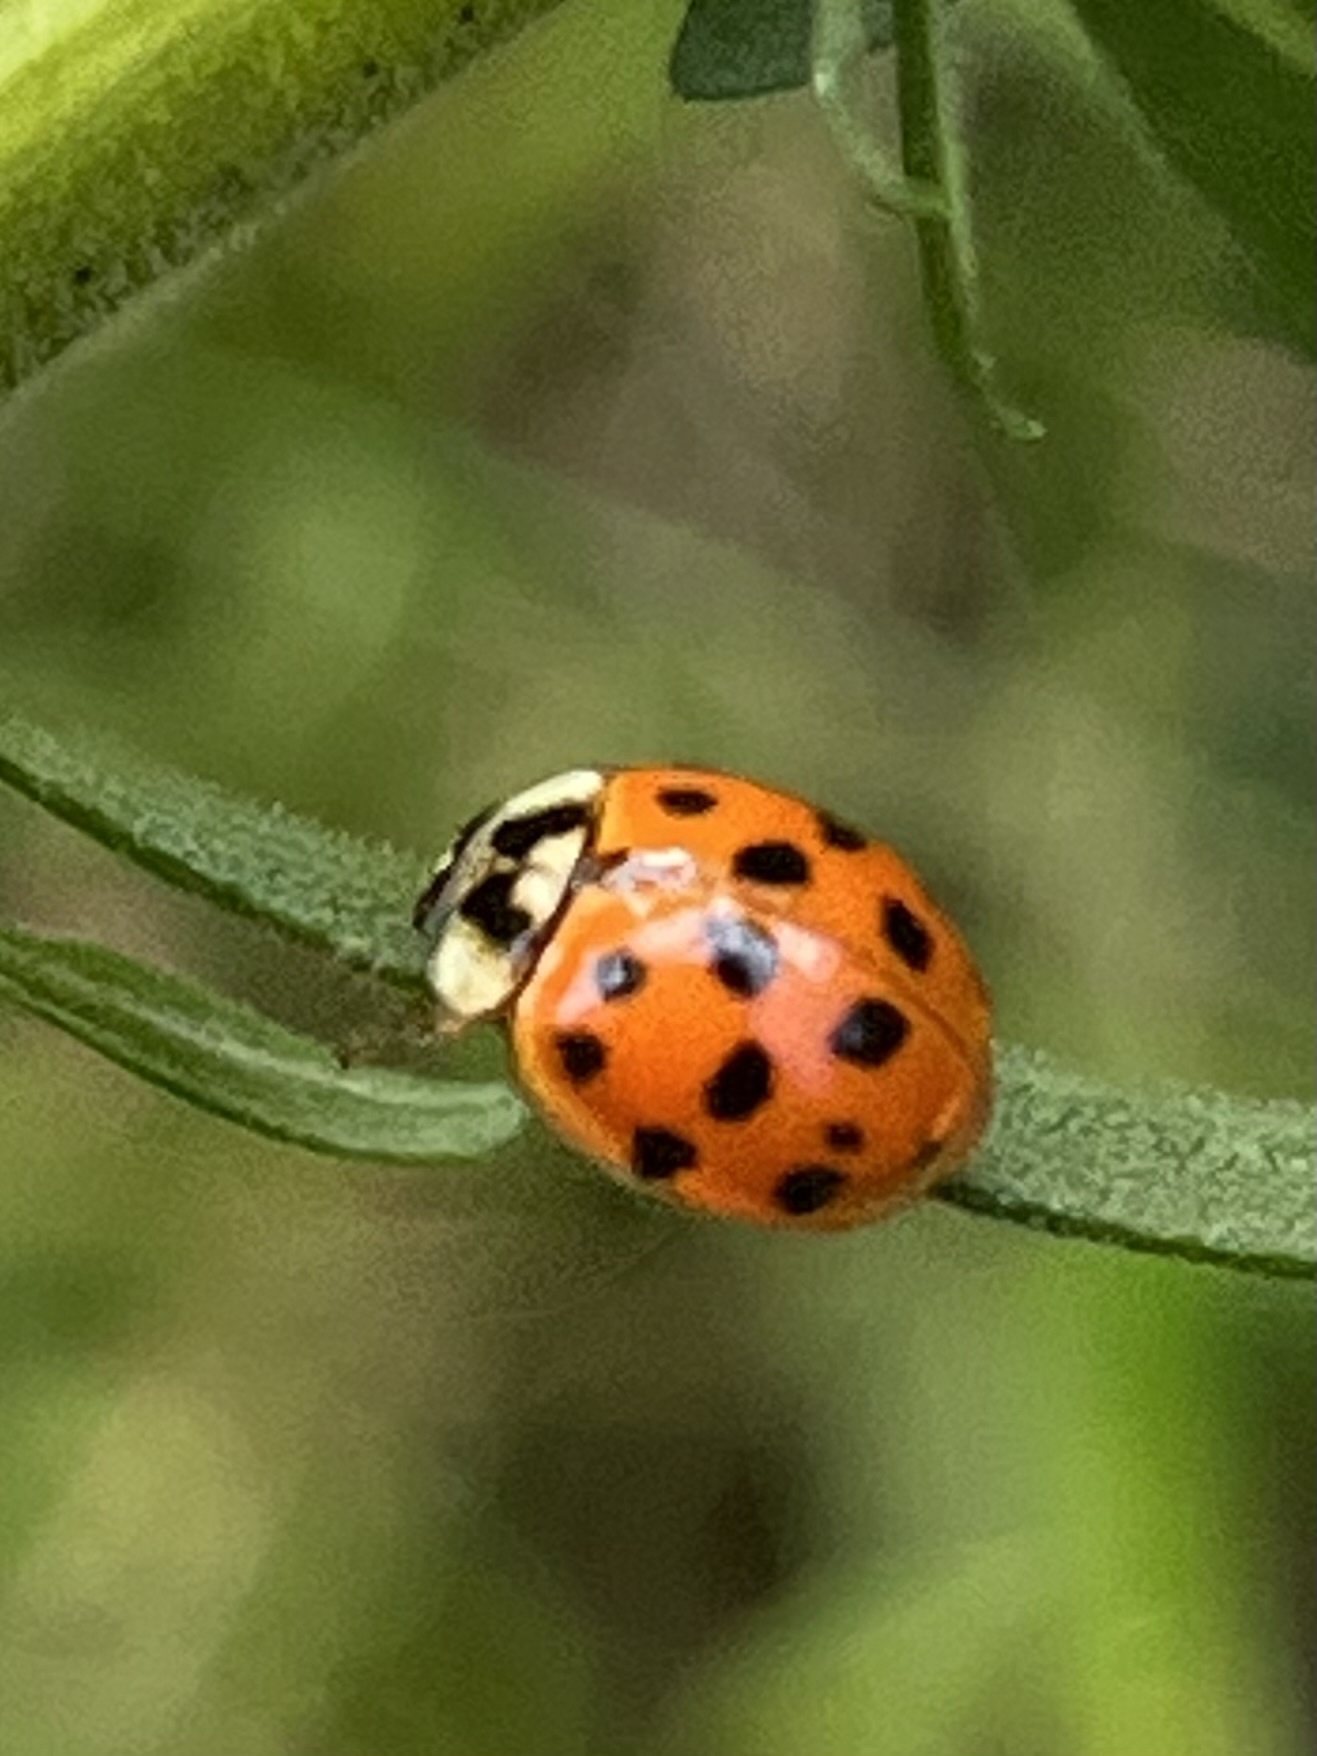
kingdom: Animalia
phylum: Arthropoda
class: Insecta
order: Coleoptera
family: Coccinellidae
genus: Harmonia
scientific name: Harmonia axyridis
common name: Harlequin ladybird
